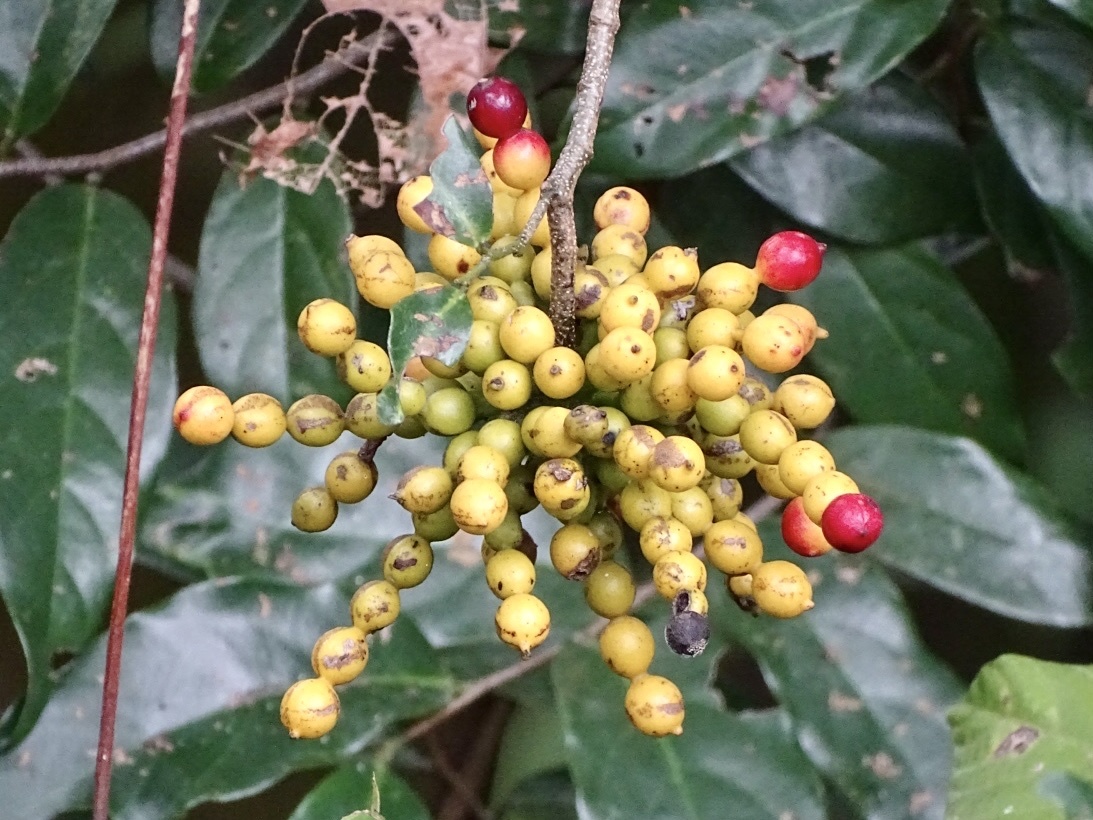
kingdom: Plantae
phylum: Tracheophyta
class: Magnoliopsida
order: Magnoliales
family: Annonaceae
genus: Desmos
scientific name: Desmos chinensis
